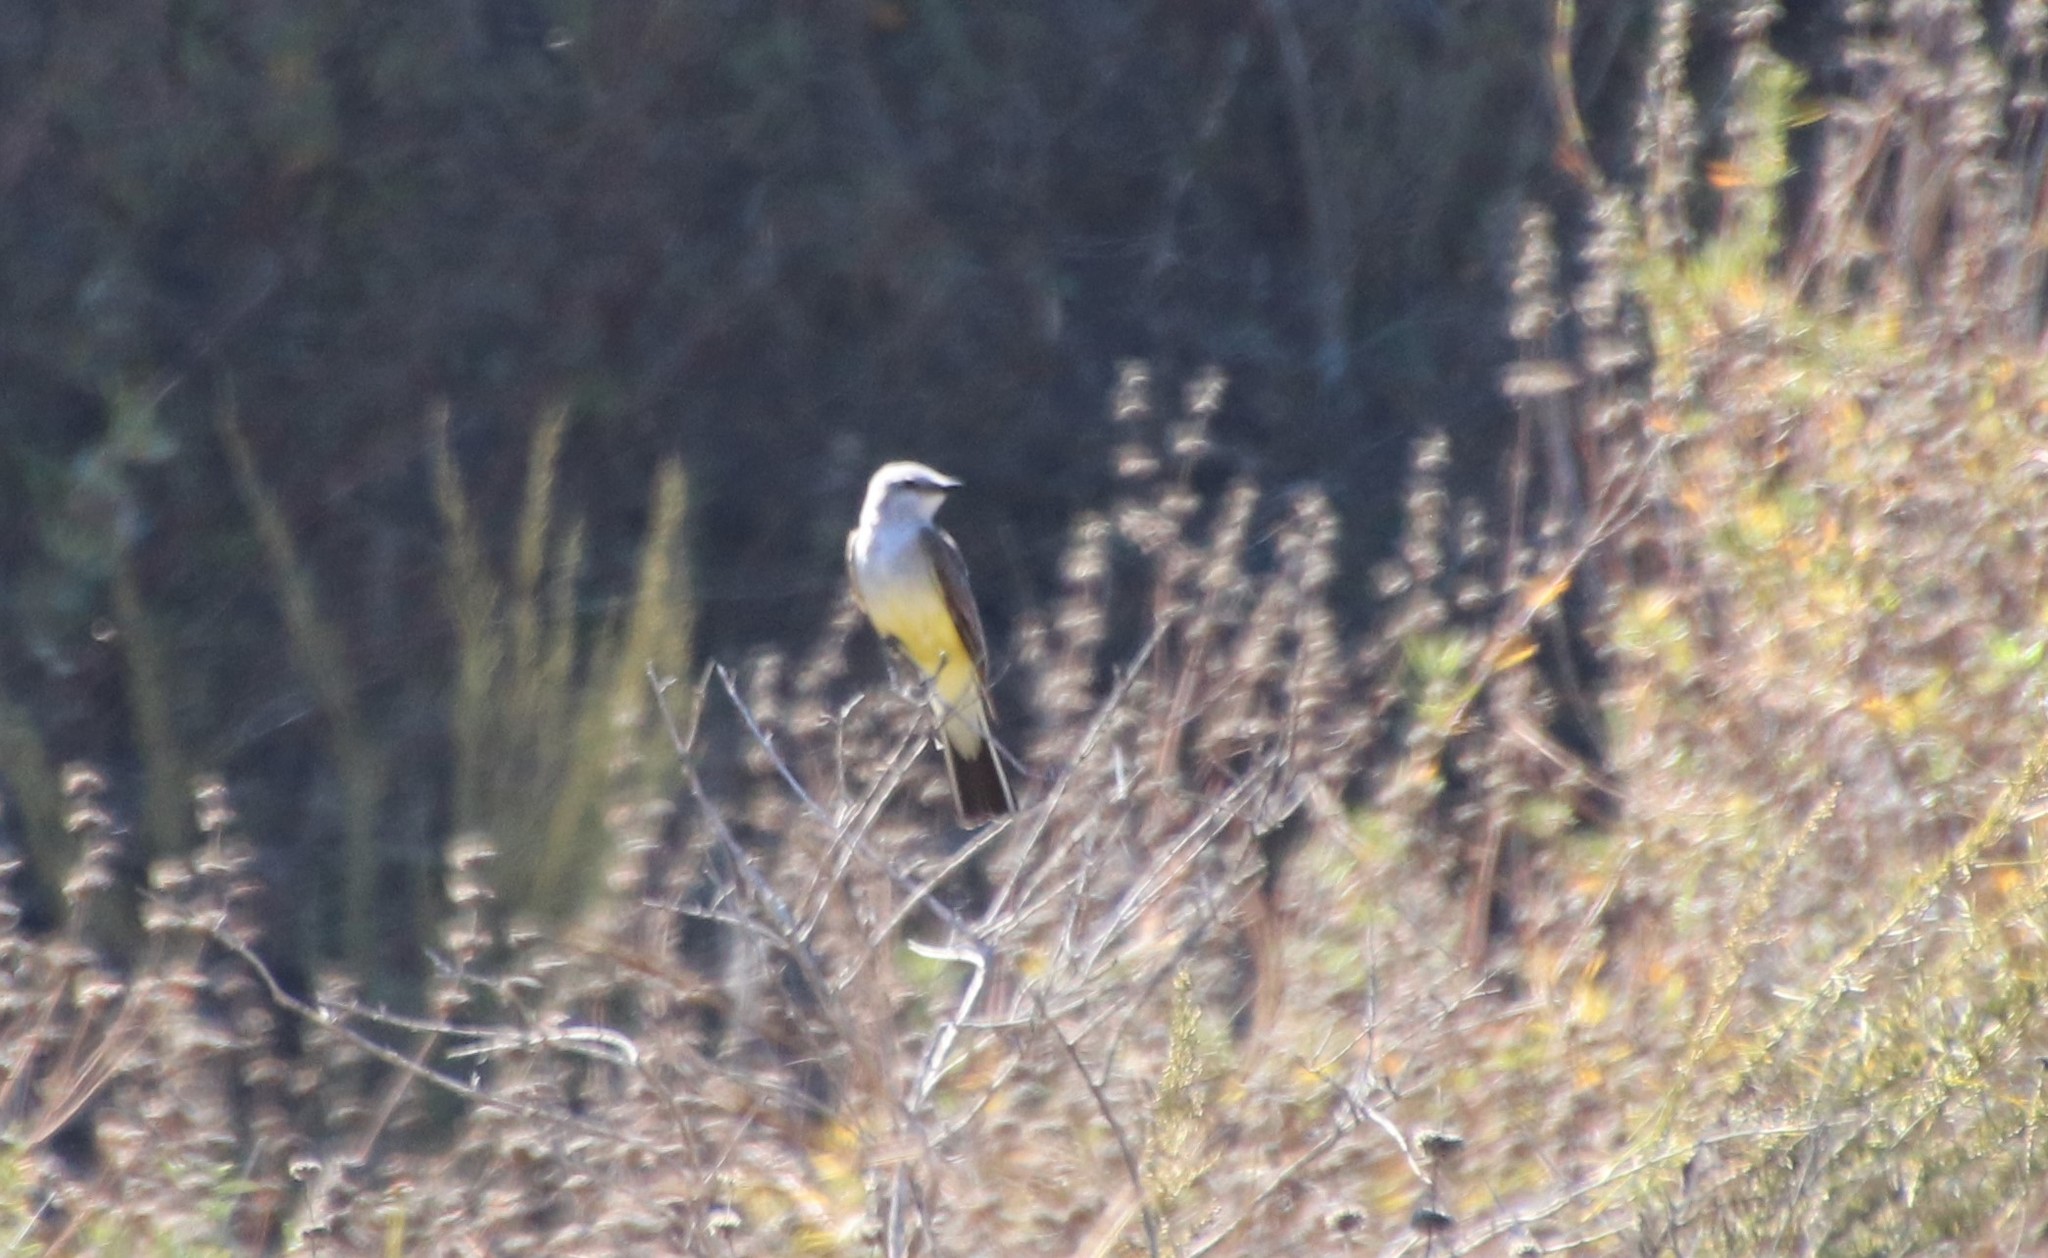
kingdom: Animalia
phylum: Chordata
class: Aves
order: Passeriformes
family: Tyrannidae
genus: Tyrannus
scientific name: Tyrannus verticalis
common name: Western kingbird
